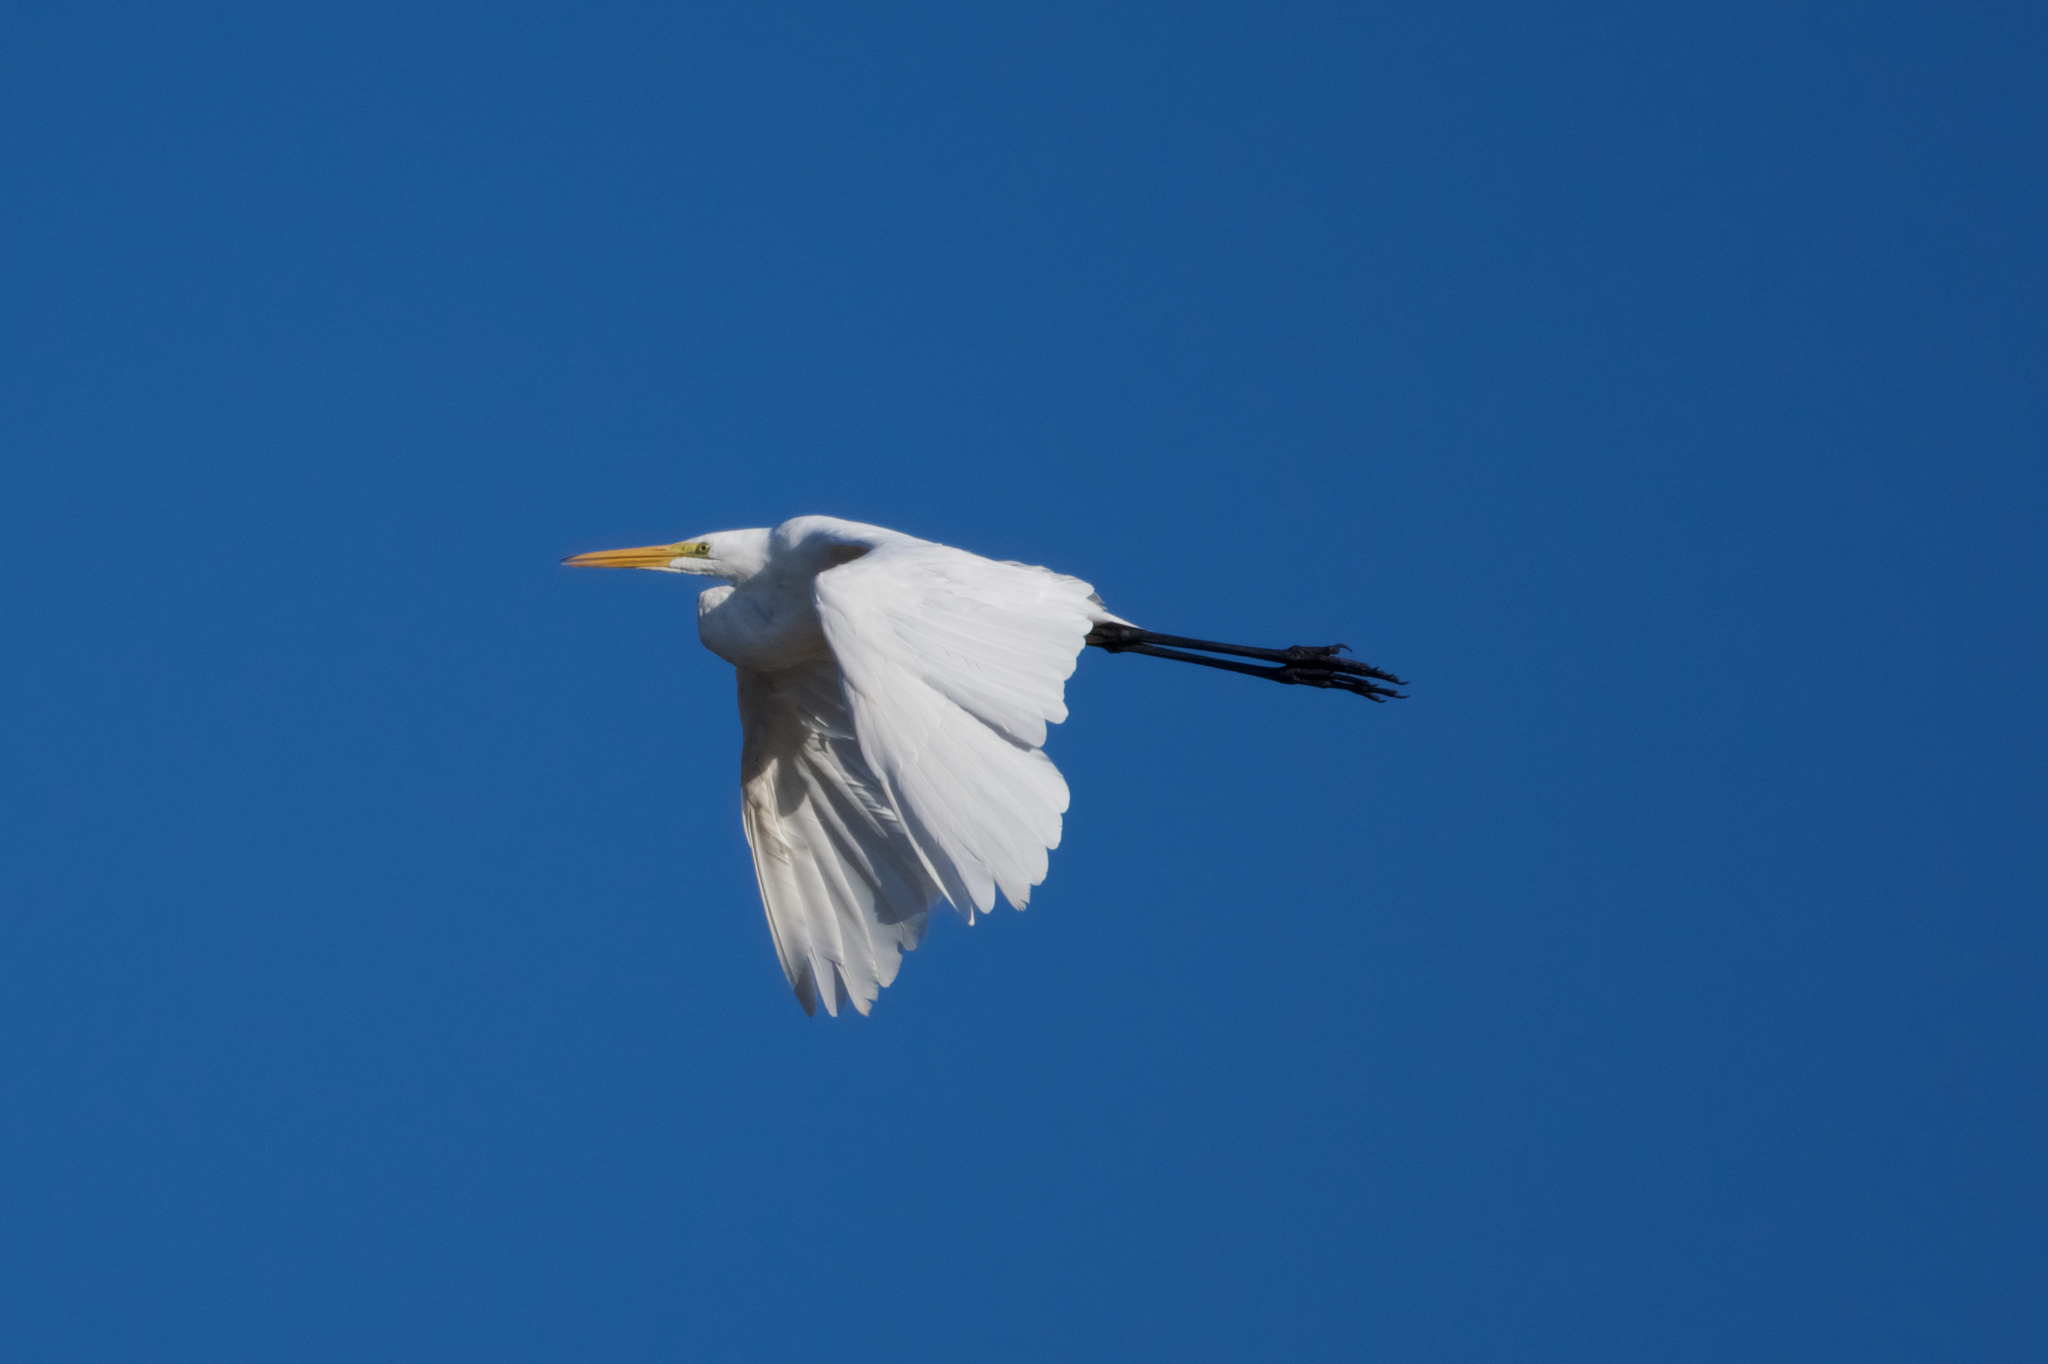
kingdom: Animalia
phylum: Chordata
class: Aves
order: Pelecaniformes
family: Ardeidae
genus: Ardea
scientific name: Ardea alba
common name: Great egret
